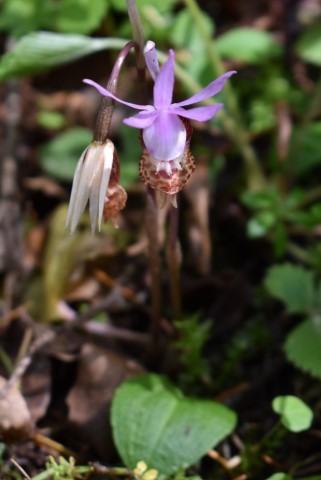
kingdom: Plantae
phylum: Tracheophyta
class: Liliopsida
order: Asparagales
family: Orchidaceae
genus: Calypso
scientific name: Calypso bulbosa
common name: Calypso
